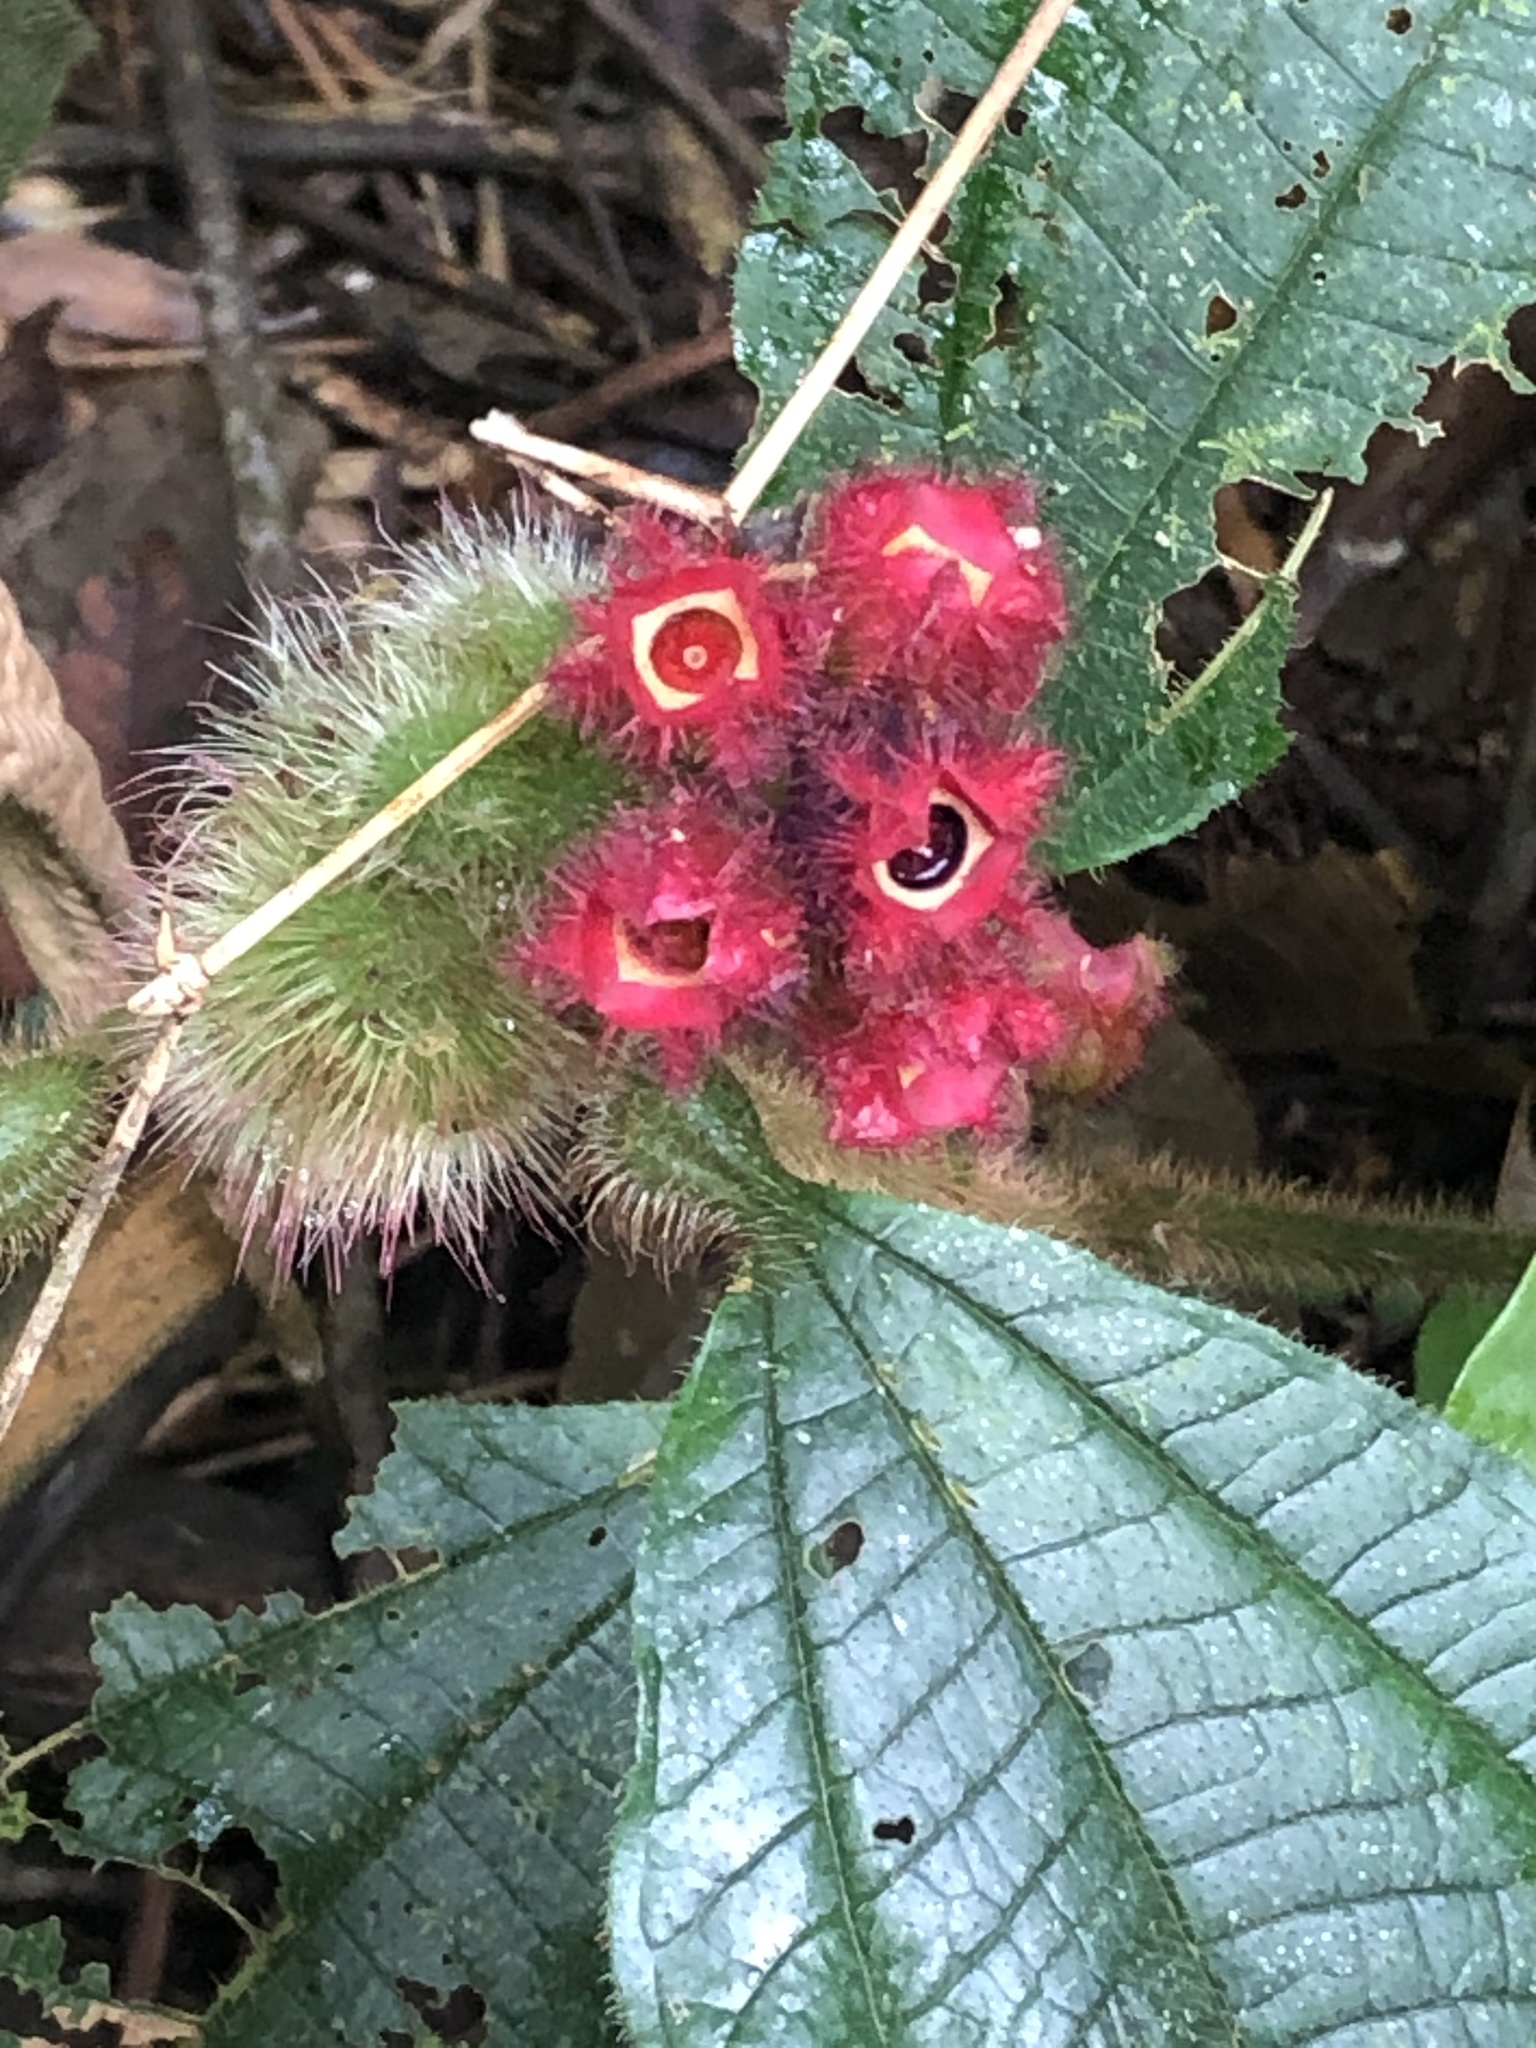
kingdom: Plantae
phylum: Tracheophyta
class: Magnoliopsida
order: Myrtales
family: Melastomataceae
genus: Miconia
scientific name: Miconia microphysca
